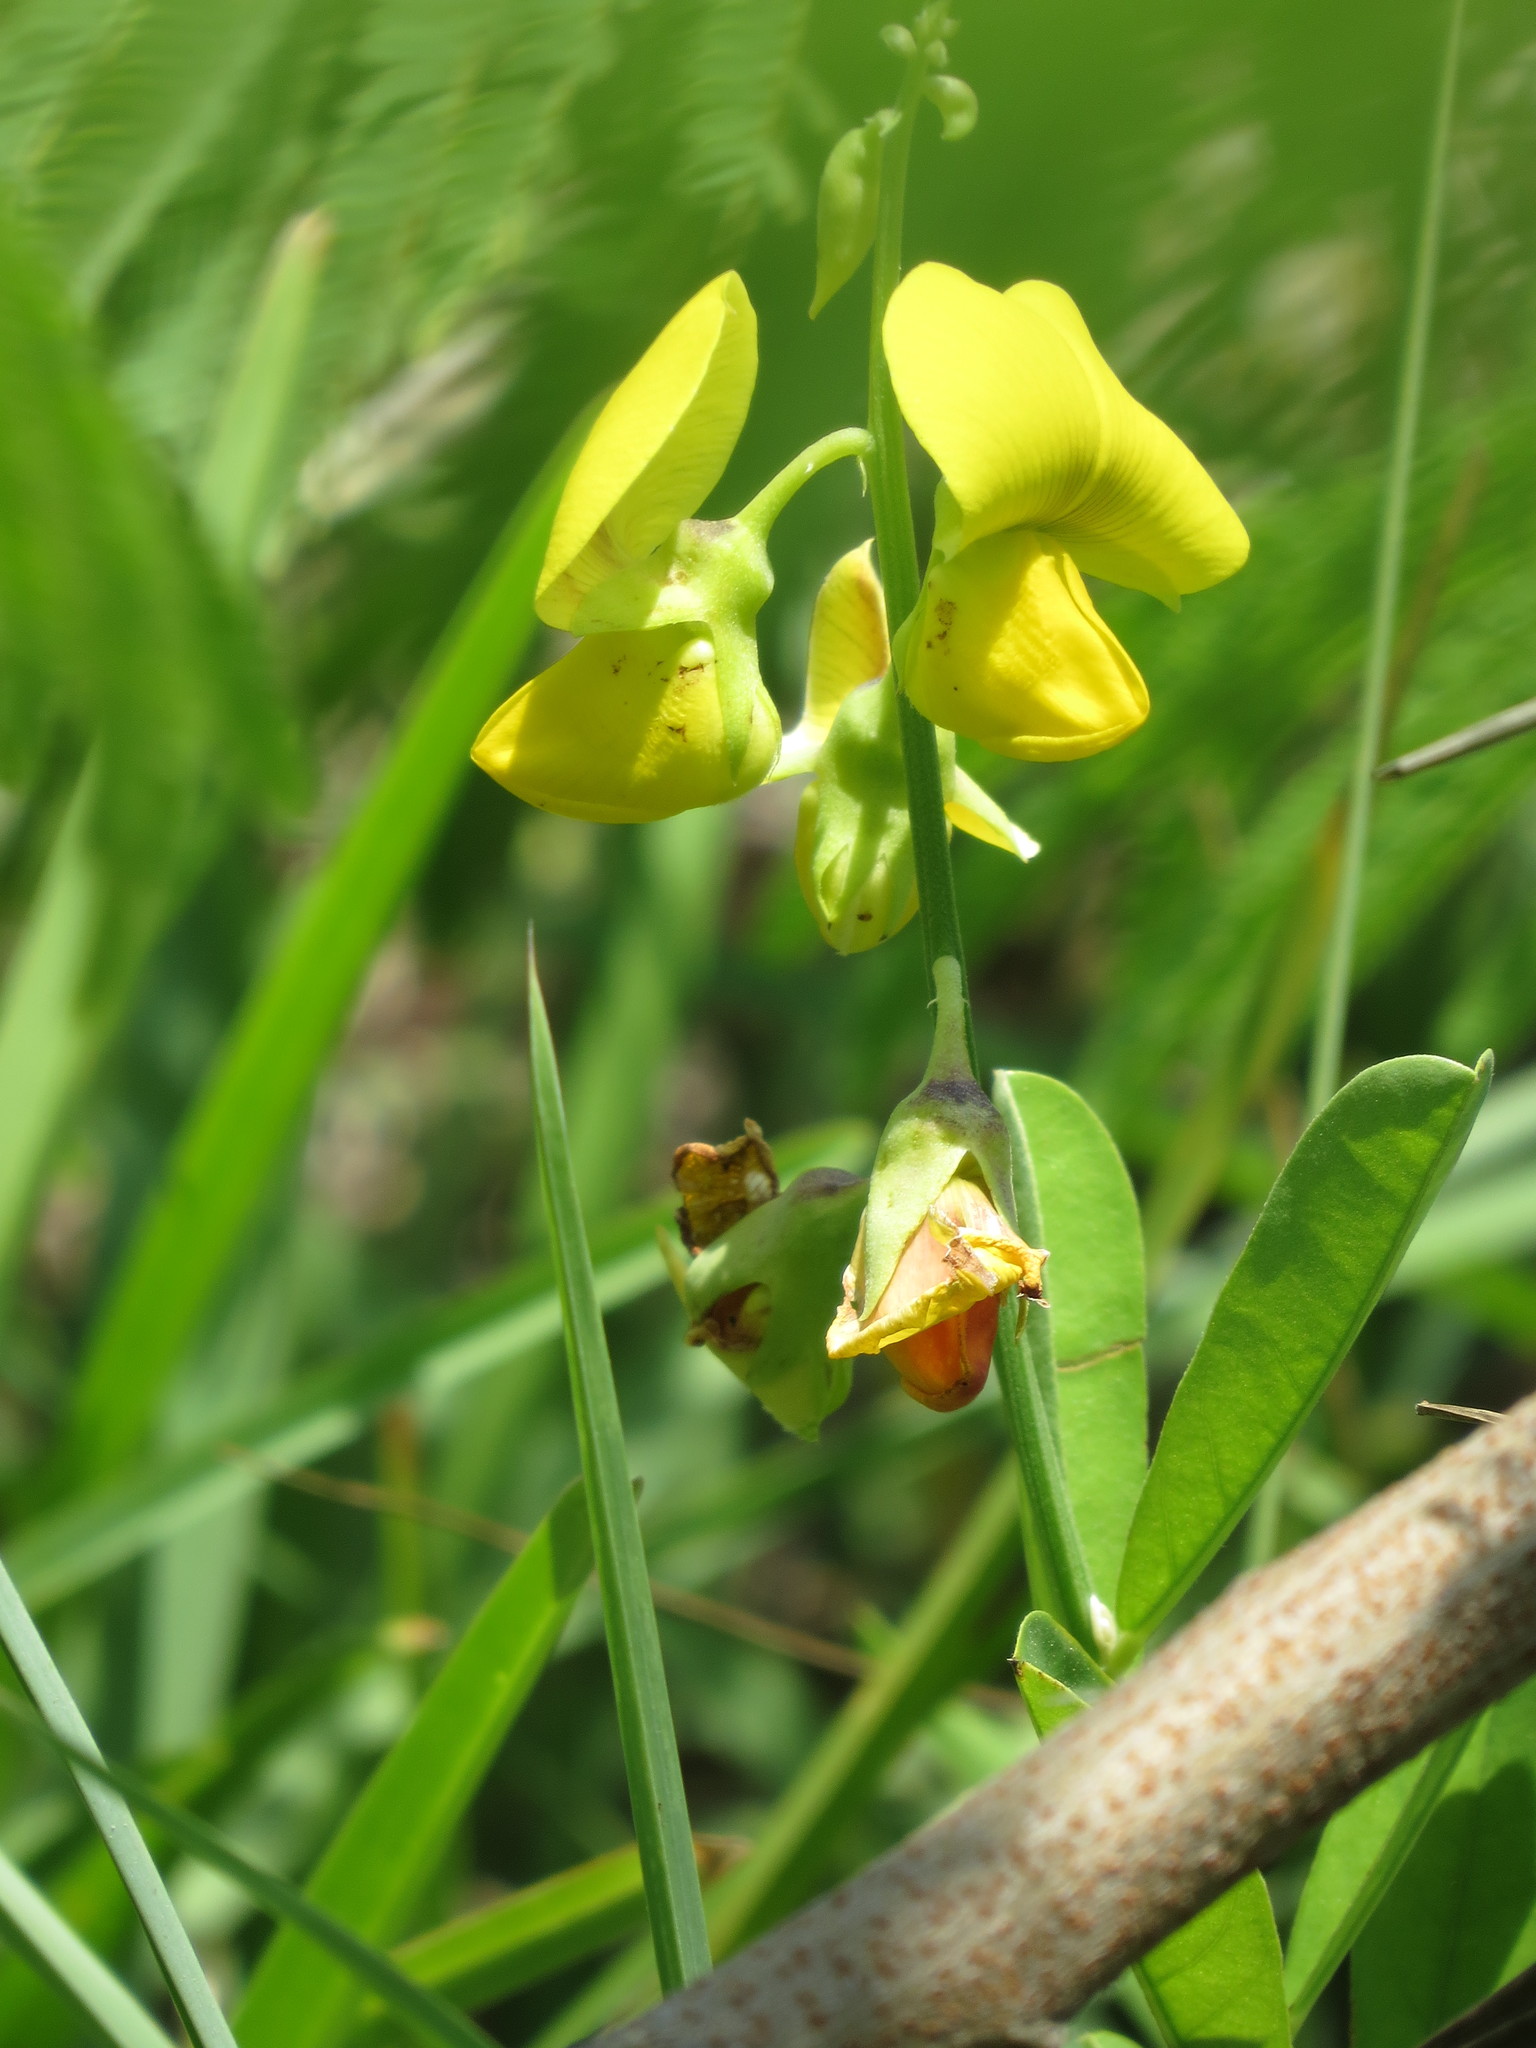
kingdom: Plantae
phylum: Tracheophyta
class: Magnoliopsida
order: Fabales
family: Fabaceae
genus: Crotalaria
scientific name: Crotalaria retusa
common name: Rattleweed
